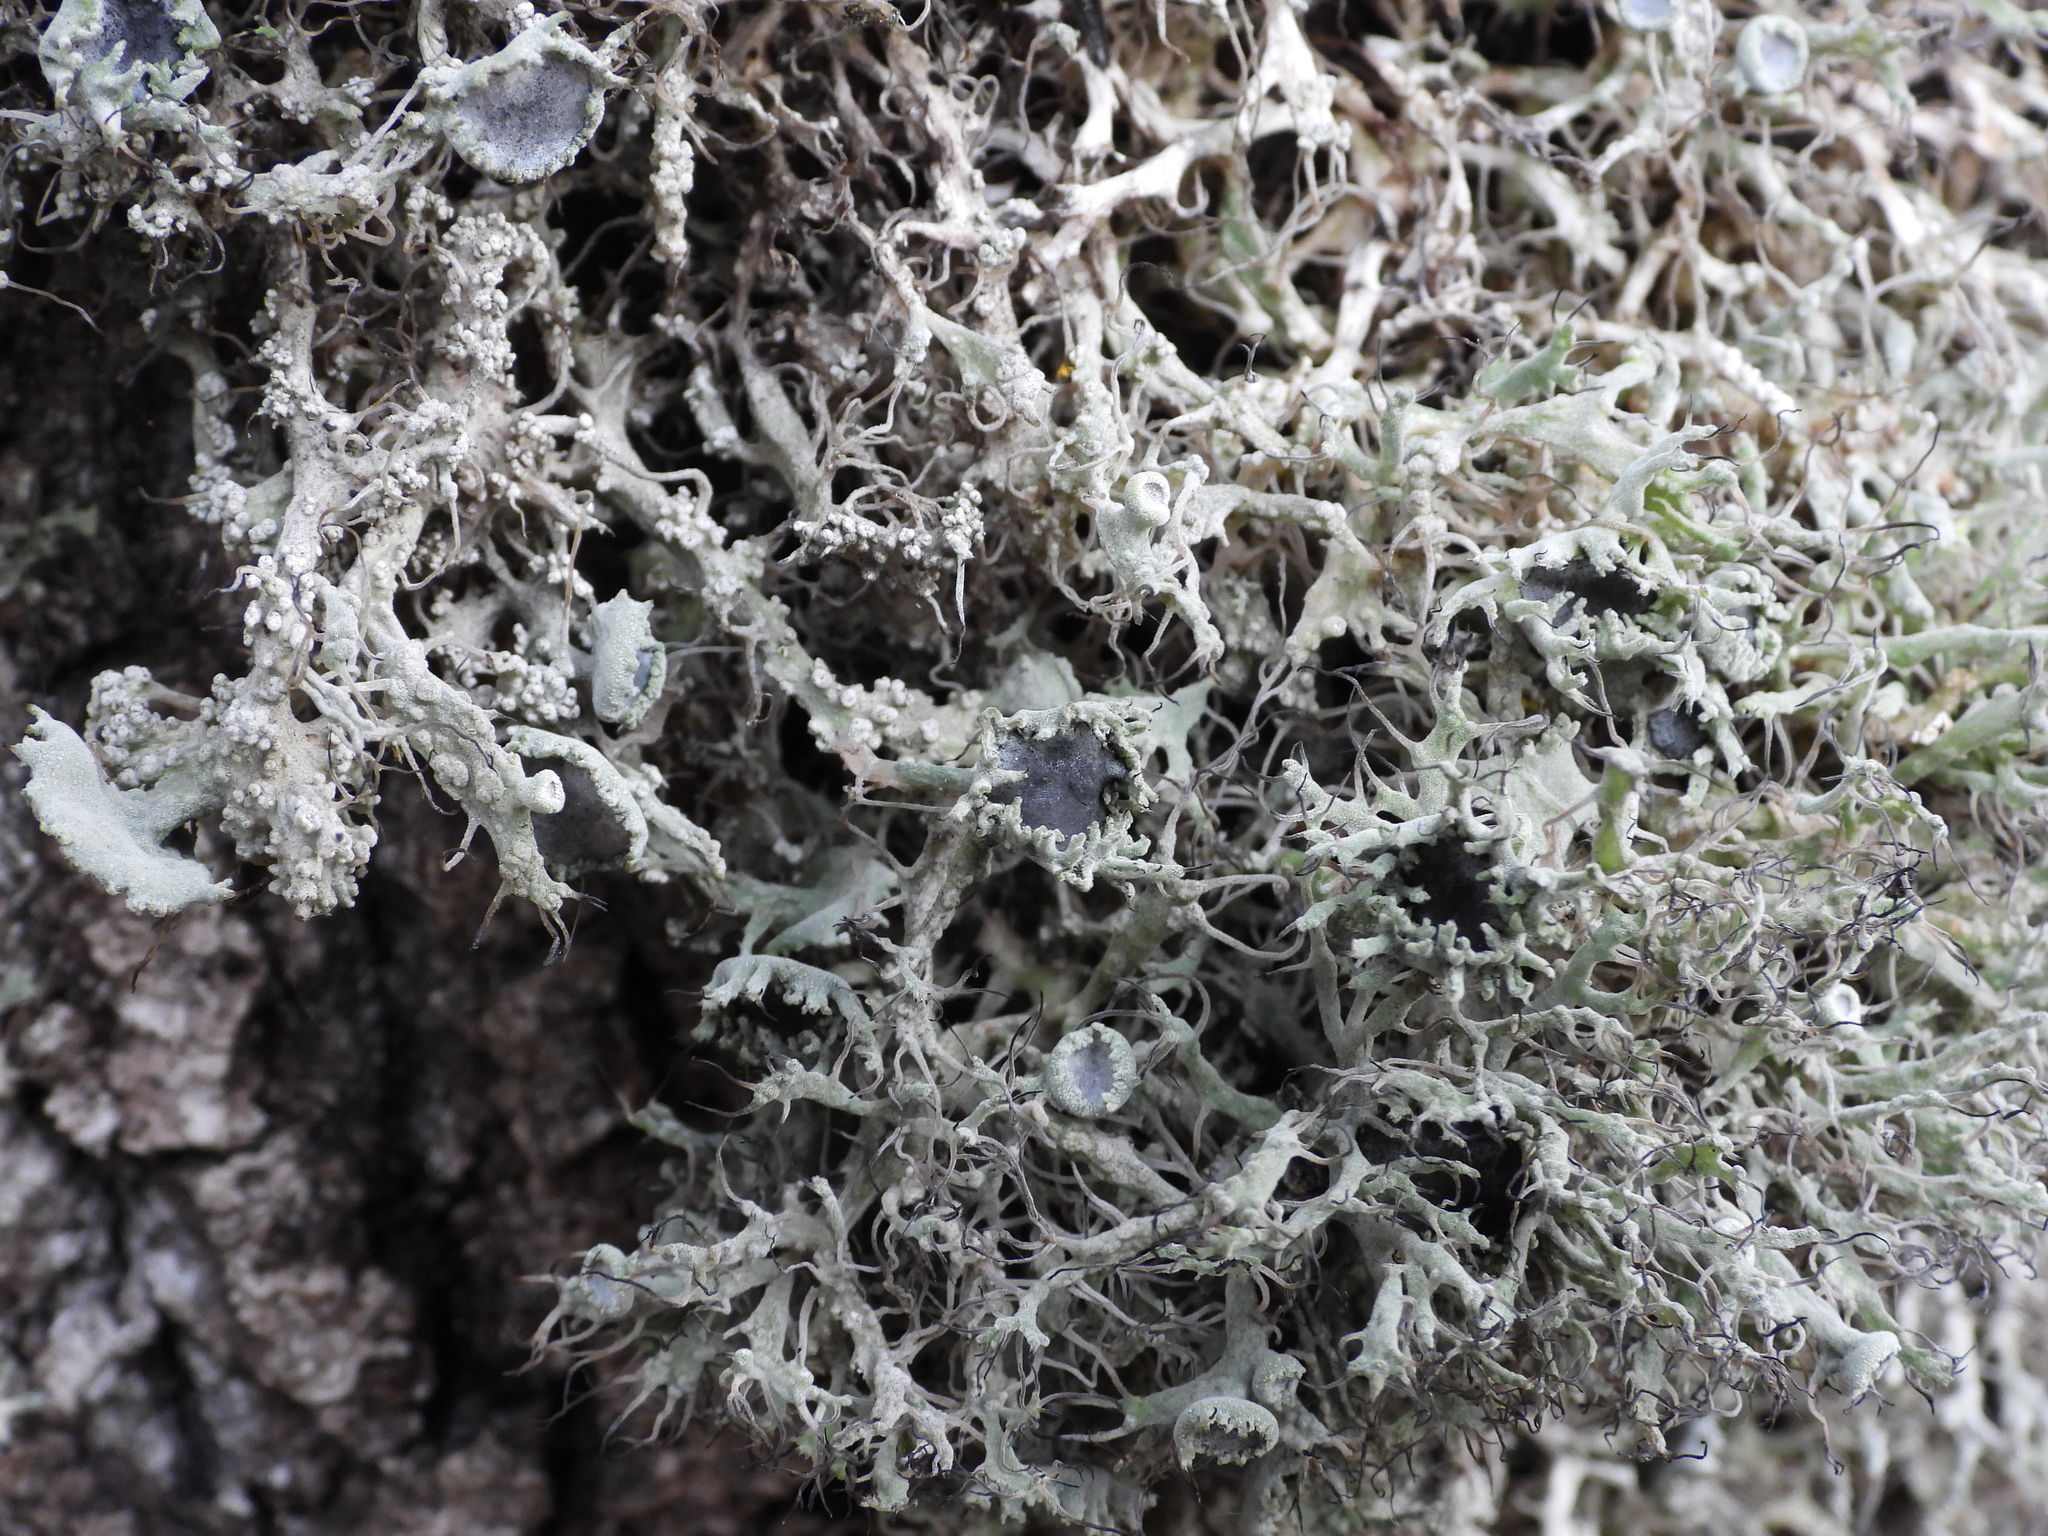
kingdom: Fungi
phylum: Ascomycota
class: Lecanoromycetes
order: Caliciales
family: Physciaceae
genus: Anaptychia
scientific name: Anaptychia ciliaris
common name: Great ciliated lichen
